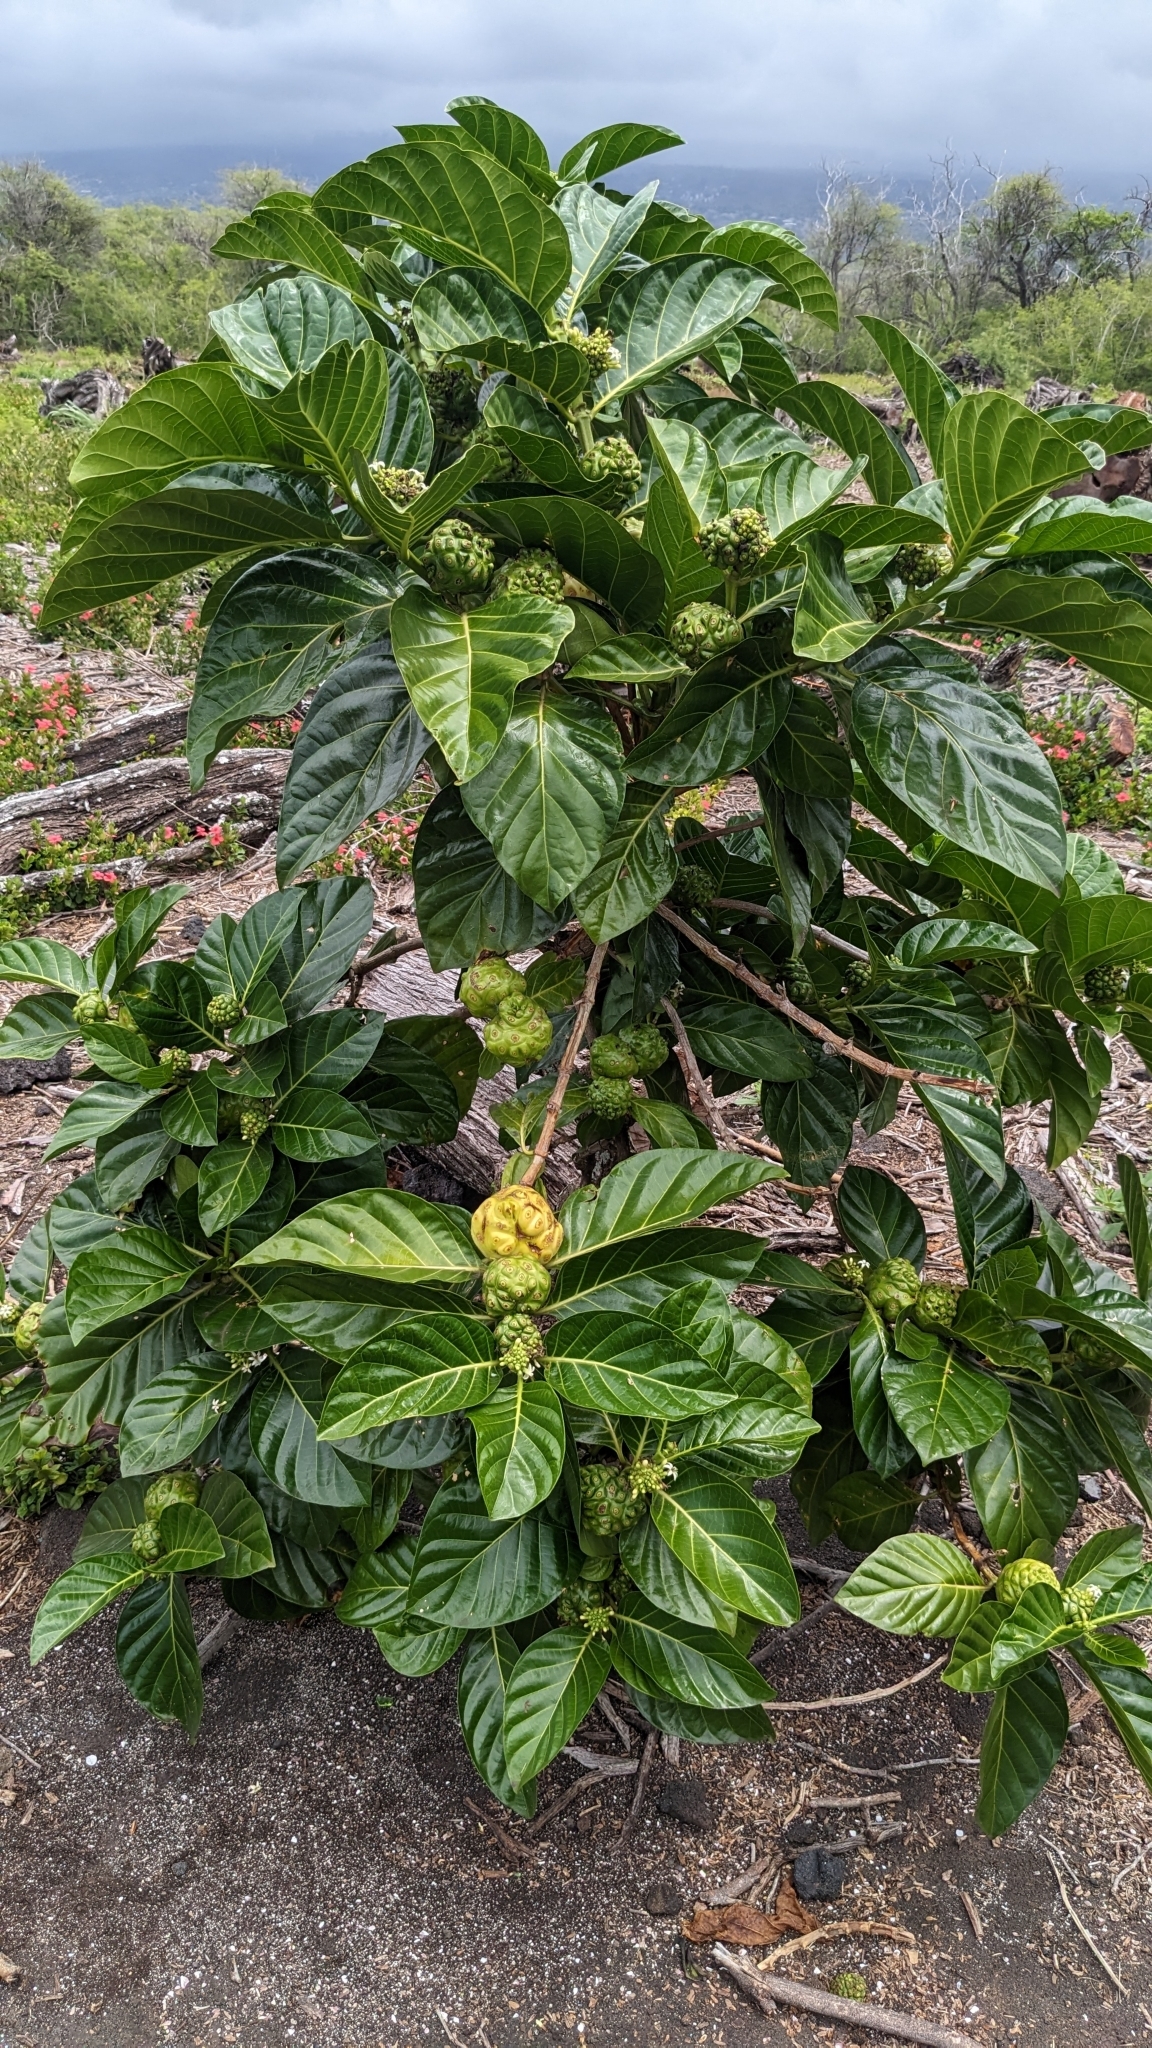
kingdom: Plantae
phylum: Tracheophyta
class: Magnoliopsida
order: Gentianales
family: Rubiaceae
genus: Morinda
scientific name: Morinda citrifolia
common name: Indian-mulberry
